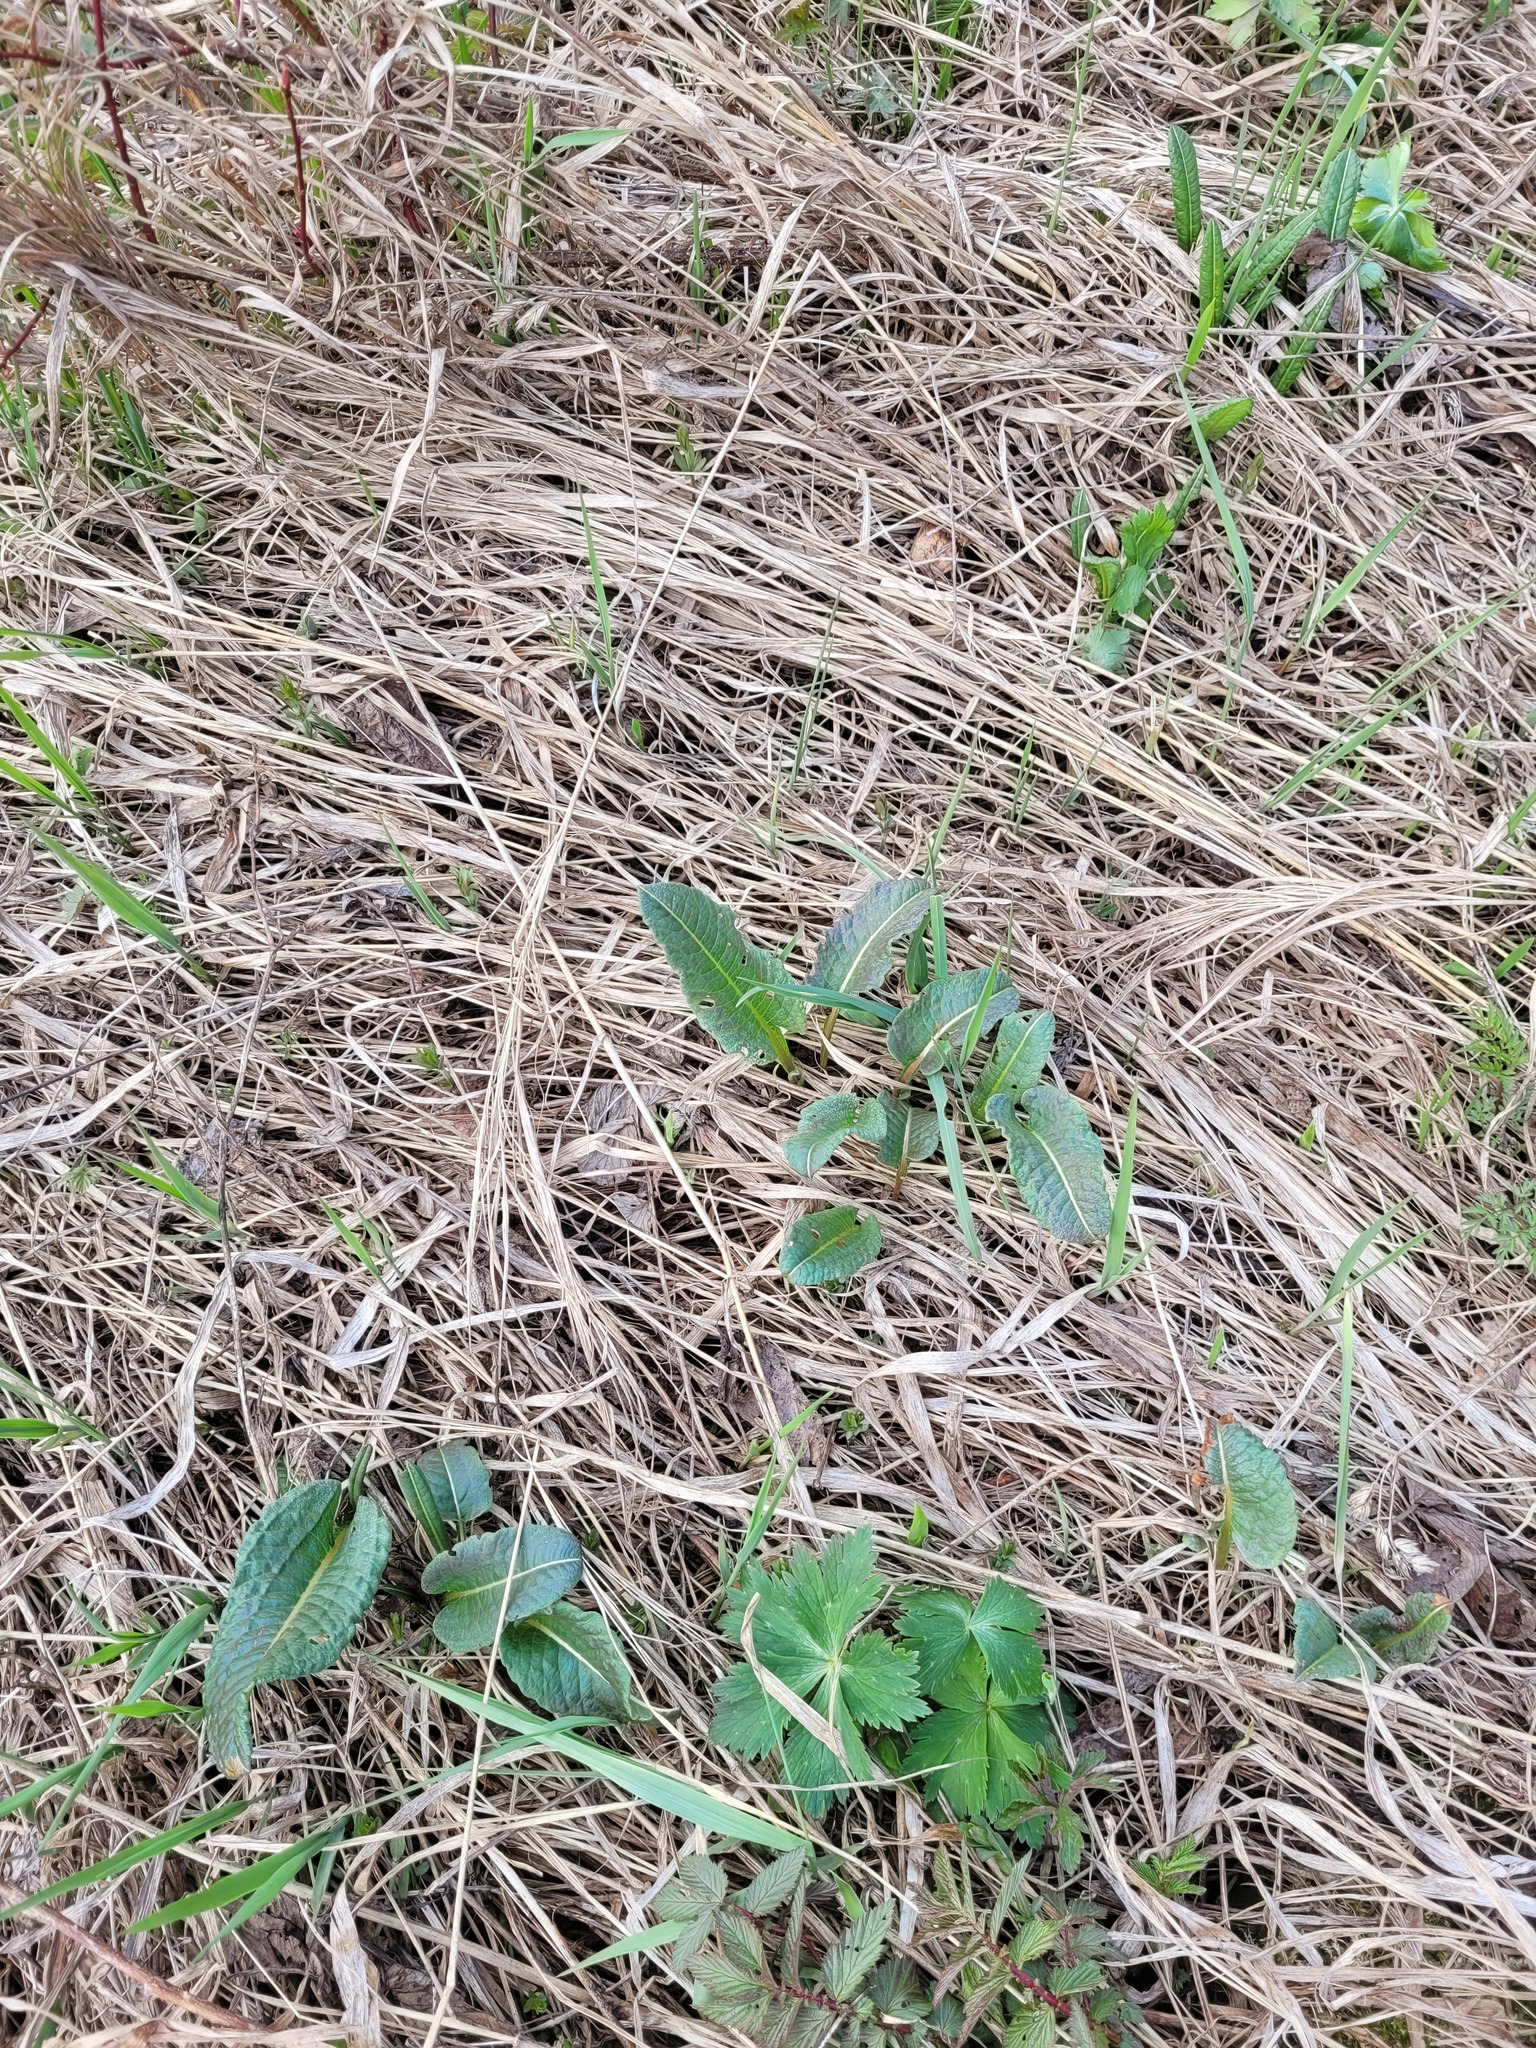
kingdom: Plantae
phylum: Tracheophyta
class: Magnoliopsida
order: Caryophyllales
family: Polygonaceae
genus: Bistorta
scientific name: Bistorta officinalis
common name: Common bistort
